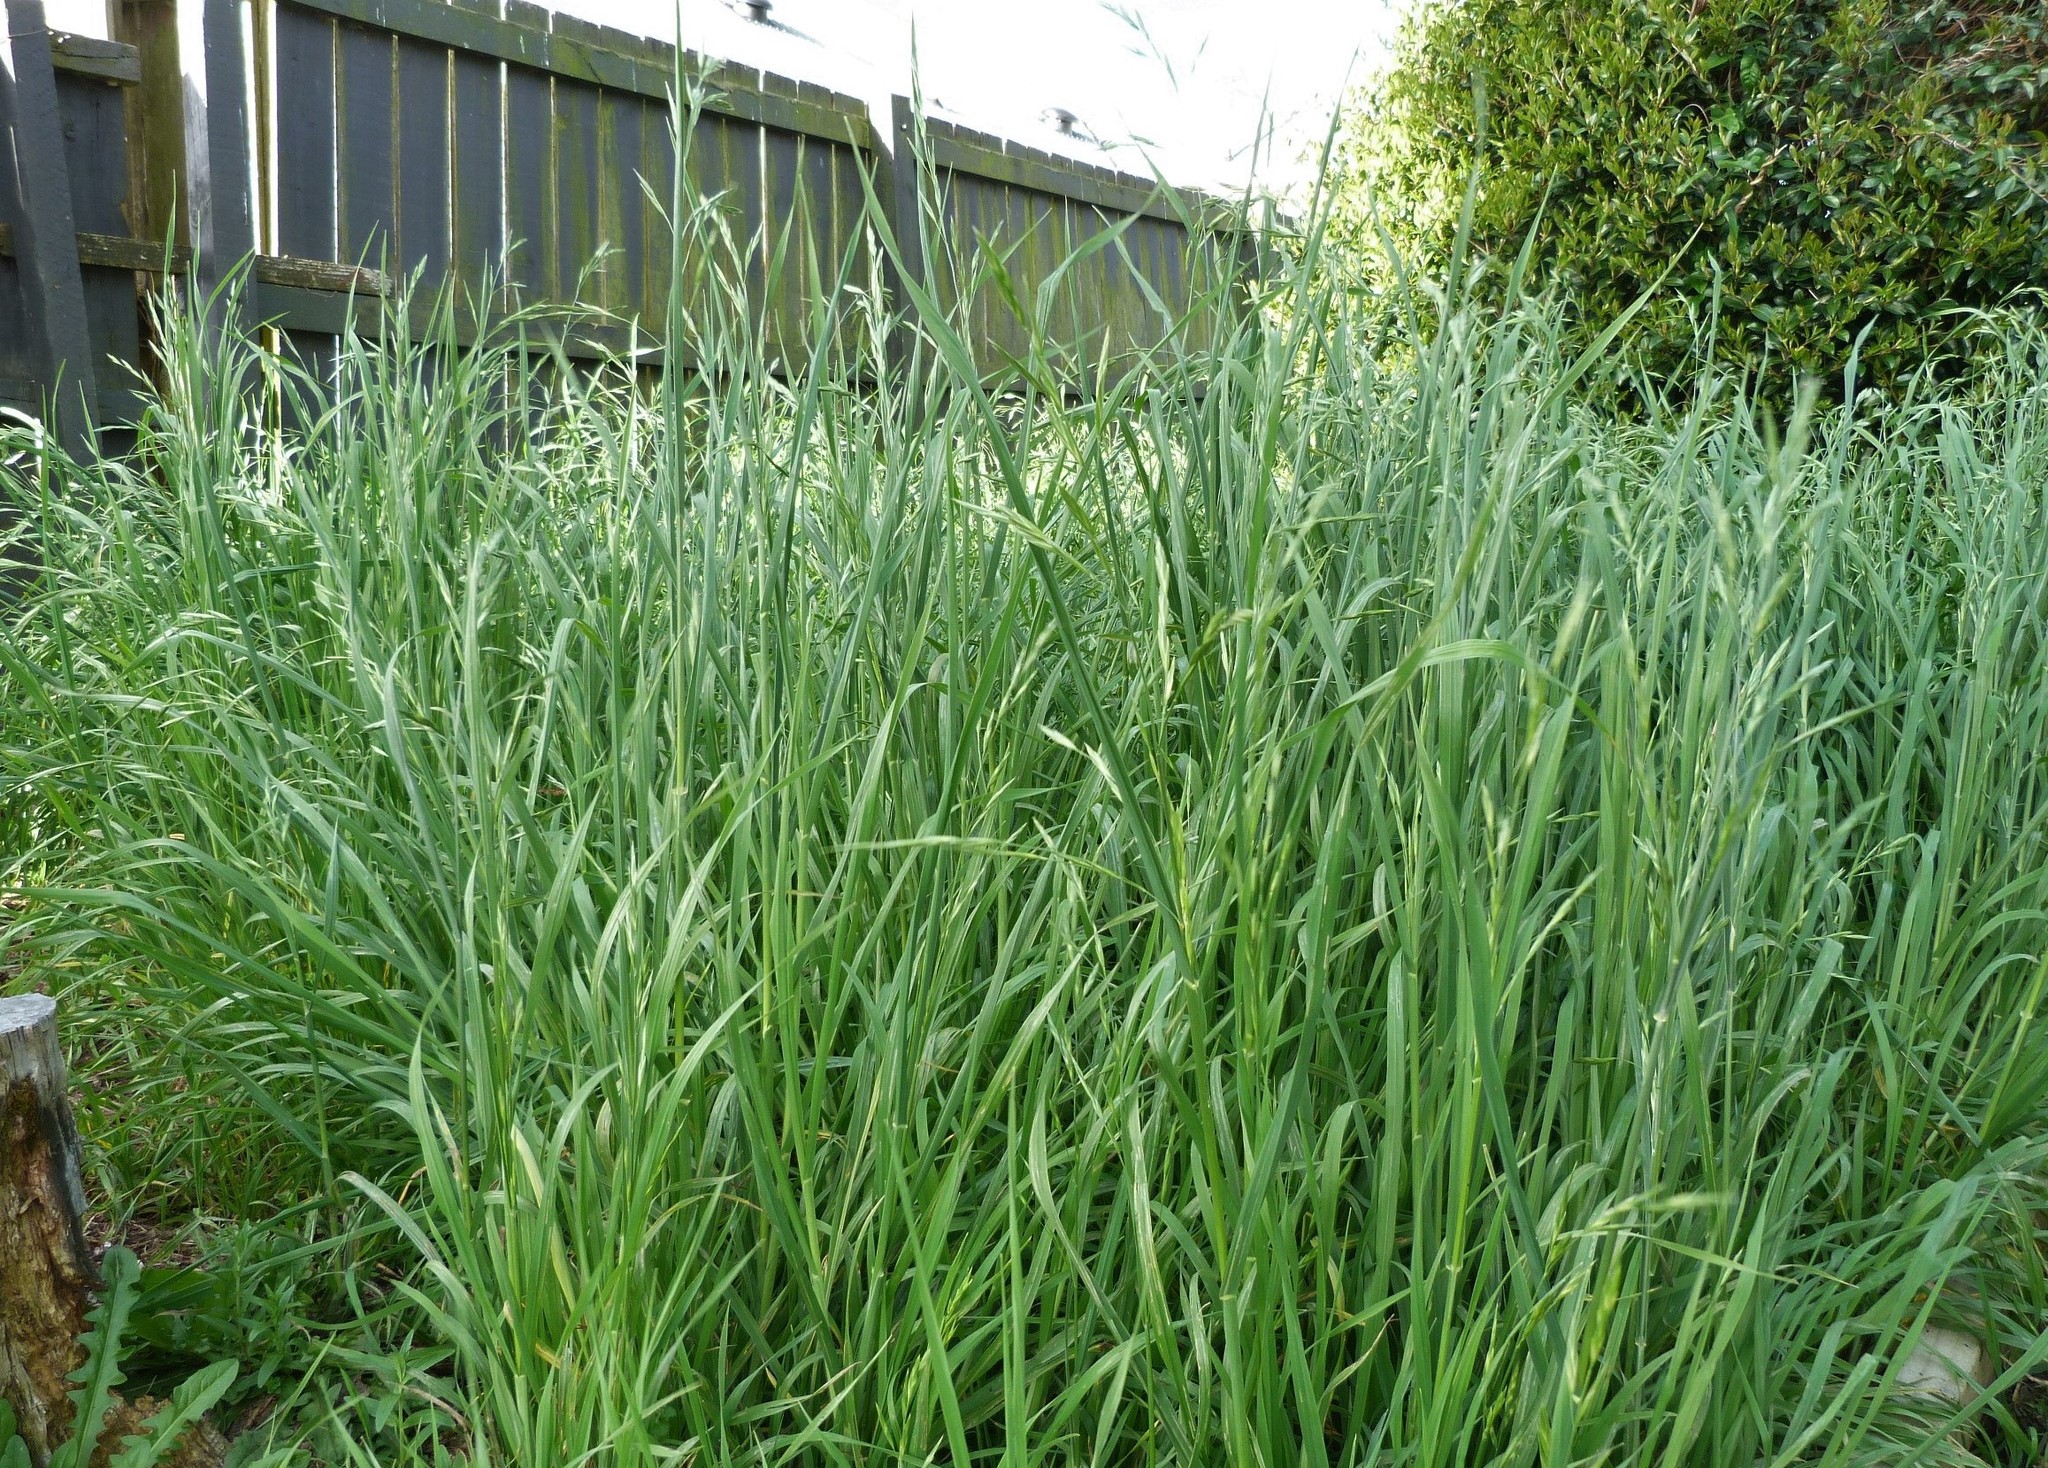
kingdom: Plantae
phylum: Tracheophyta
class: Liliopsida
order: Poales
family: Poaceae
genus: Bromus
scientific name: Bromus catharticus
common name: Rescuegrass
